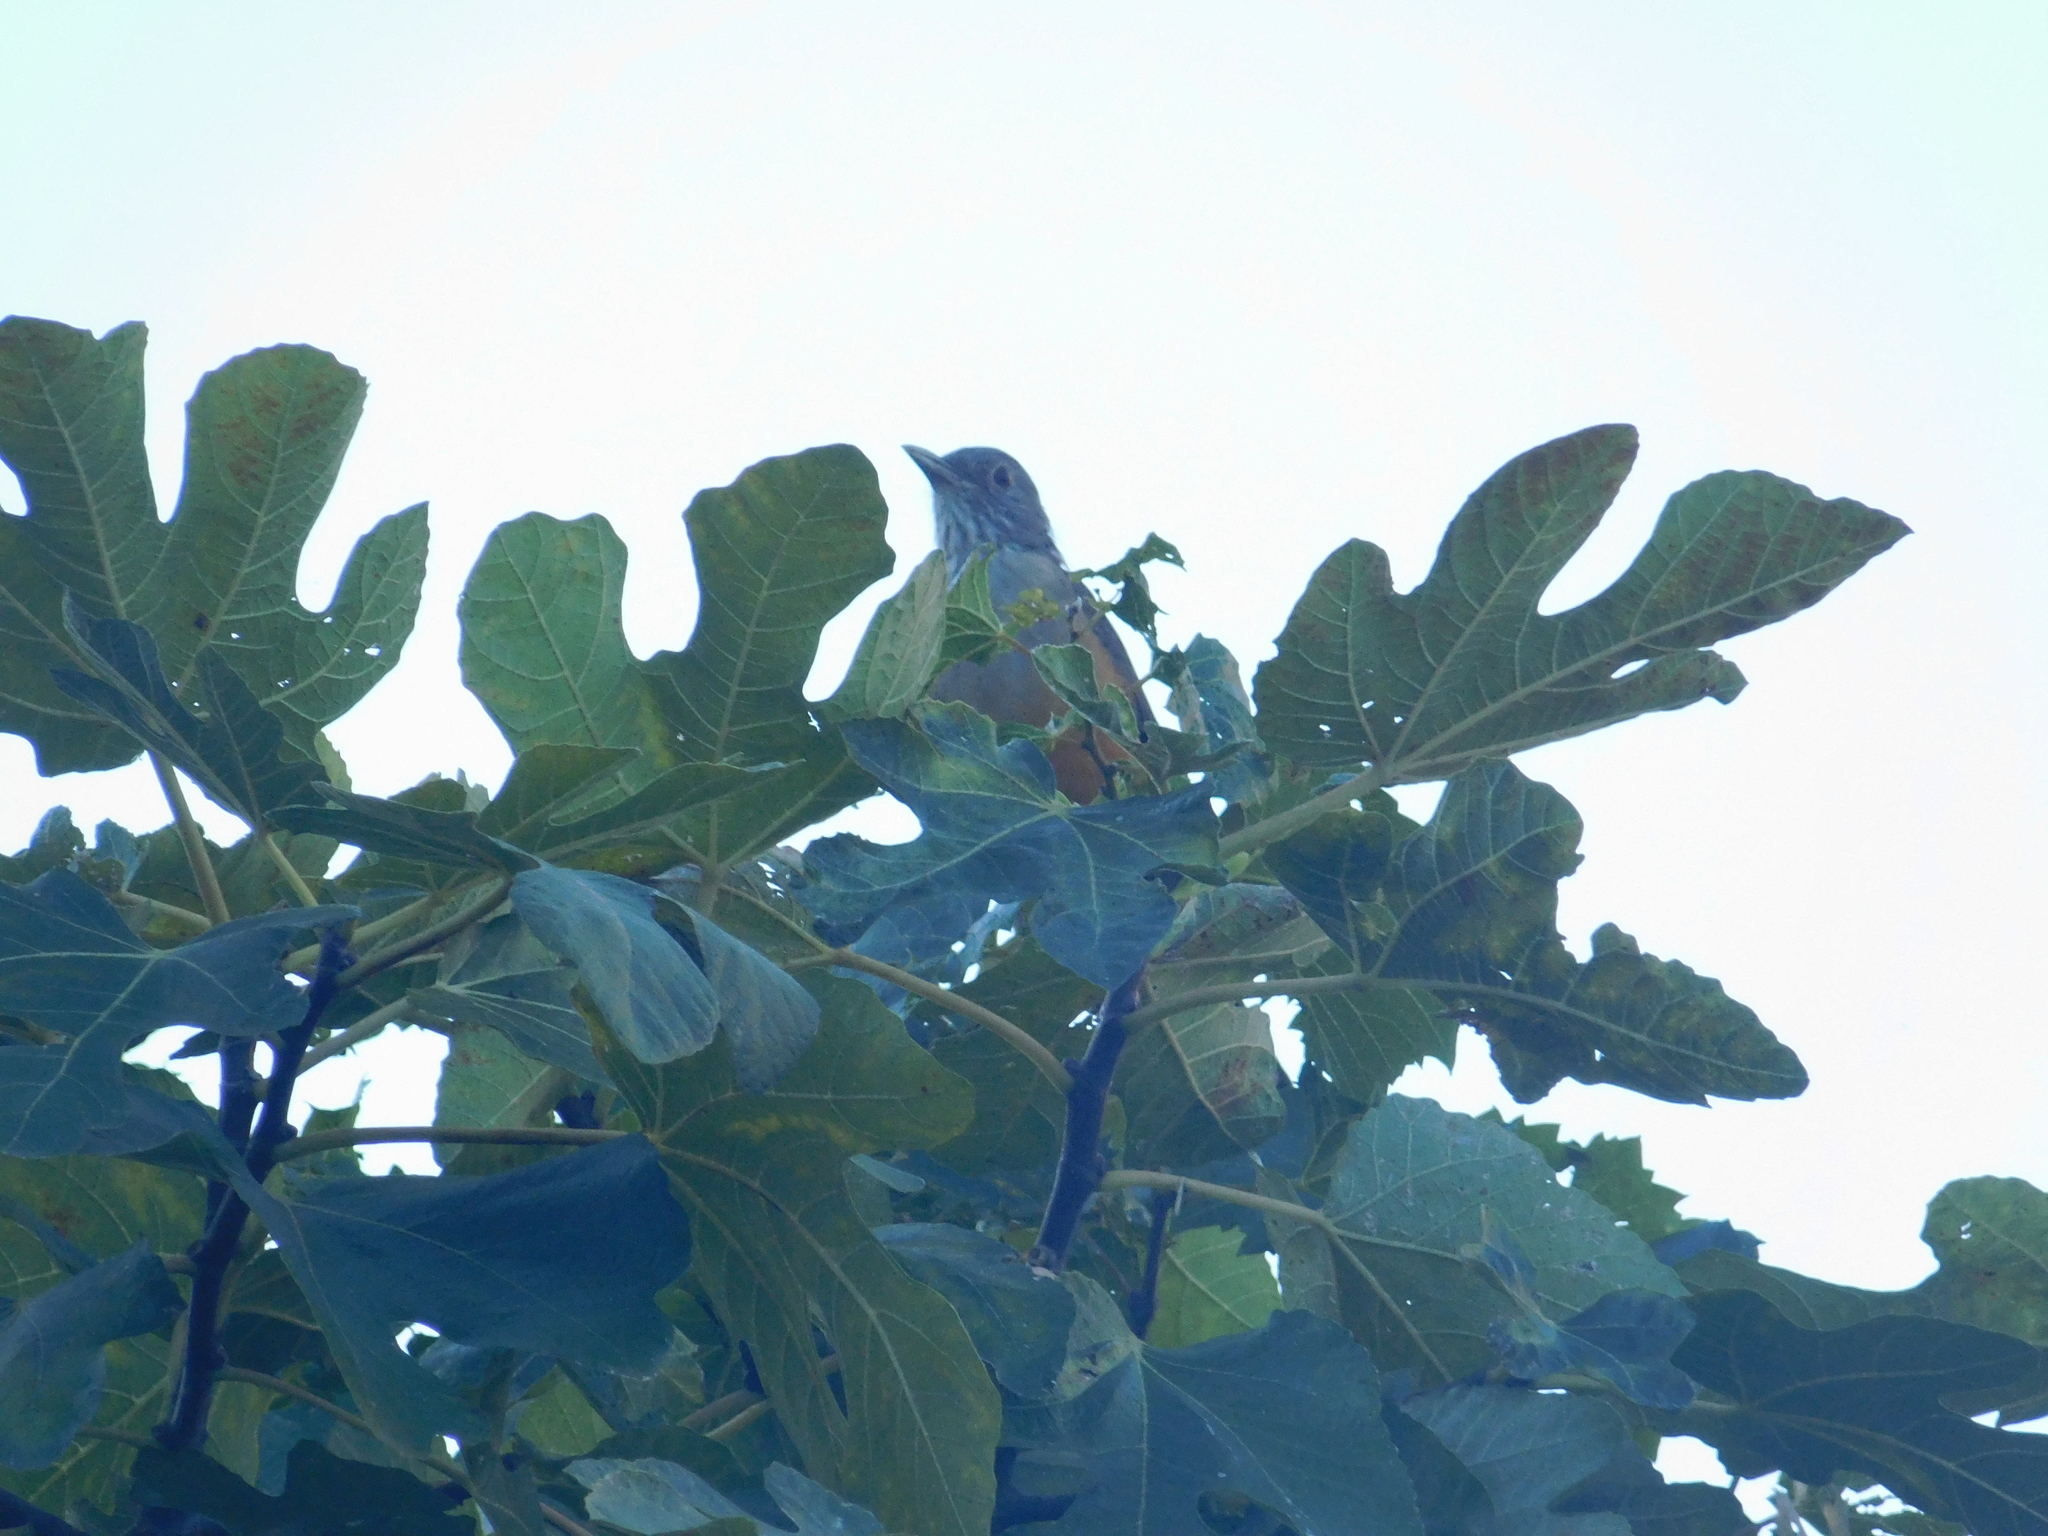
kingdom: Animalia
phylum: Chordata
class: Aves
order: Passeriformes
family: Turdidae
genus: Turdus
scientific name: Turdus rufiventris
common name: Rufous-bellied thrush
